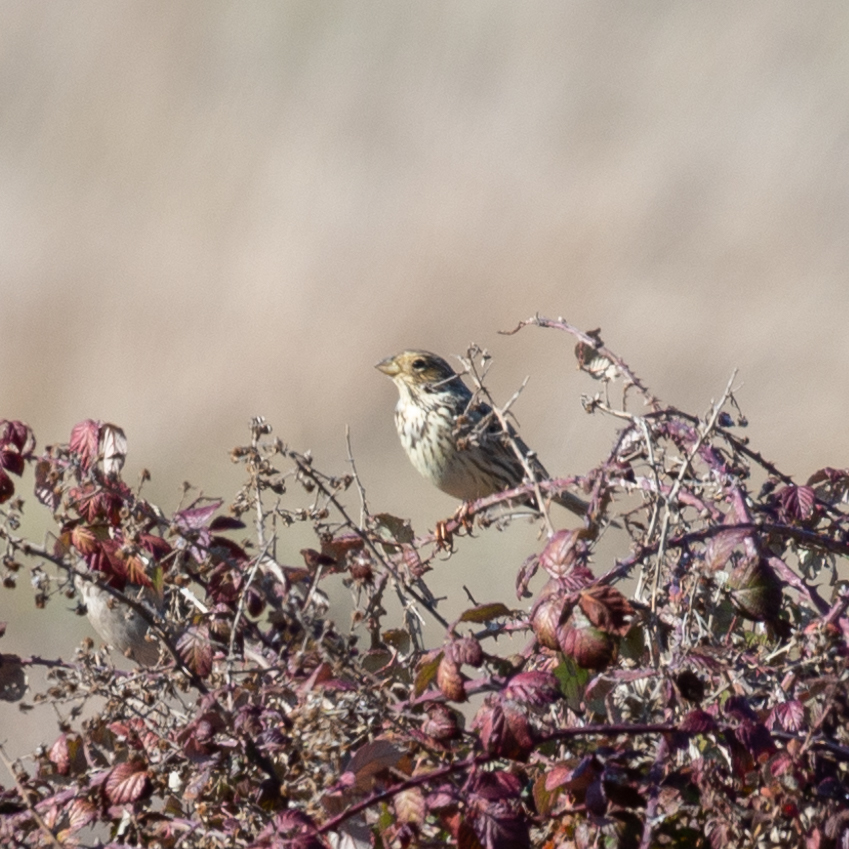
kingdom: Animalia
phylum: Chordata
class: Aves
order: Passeriformes
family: Emberizidae
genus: Emberiza
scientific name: Emberiza calandra
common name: Corn bunting
